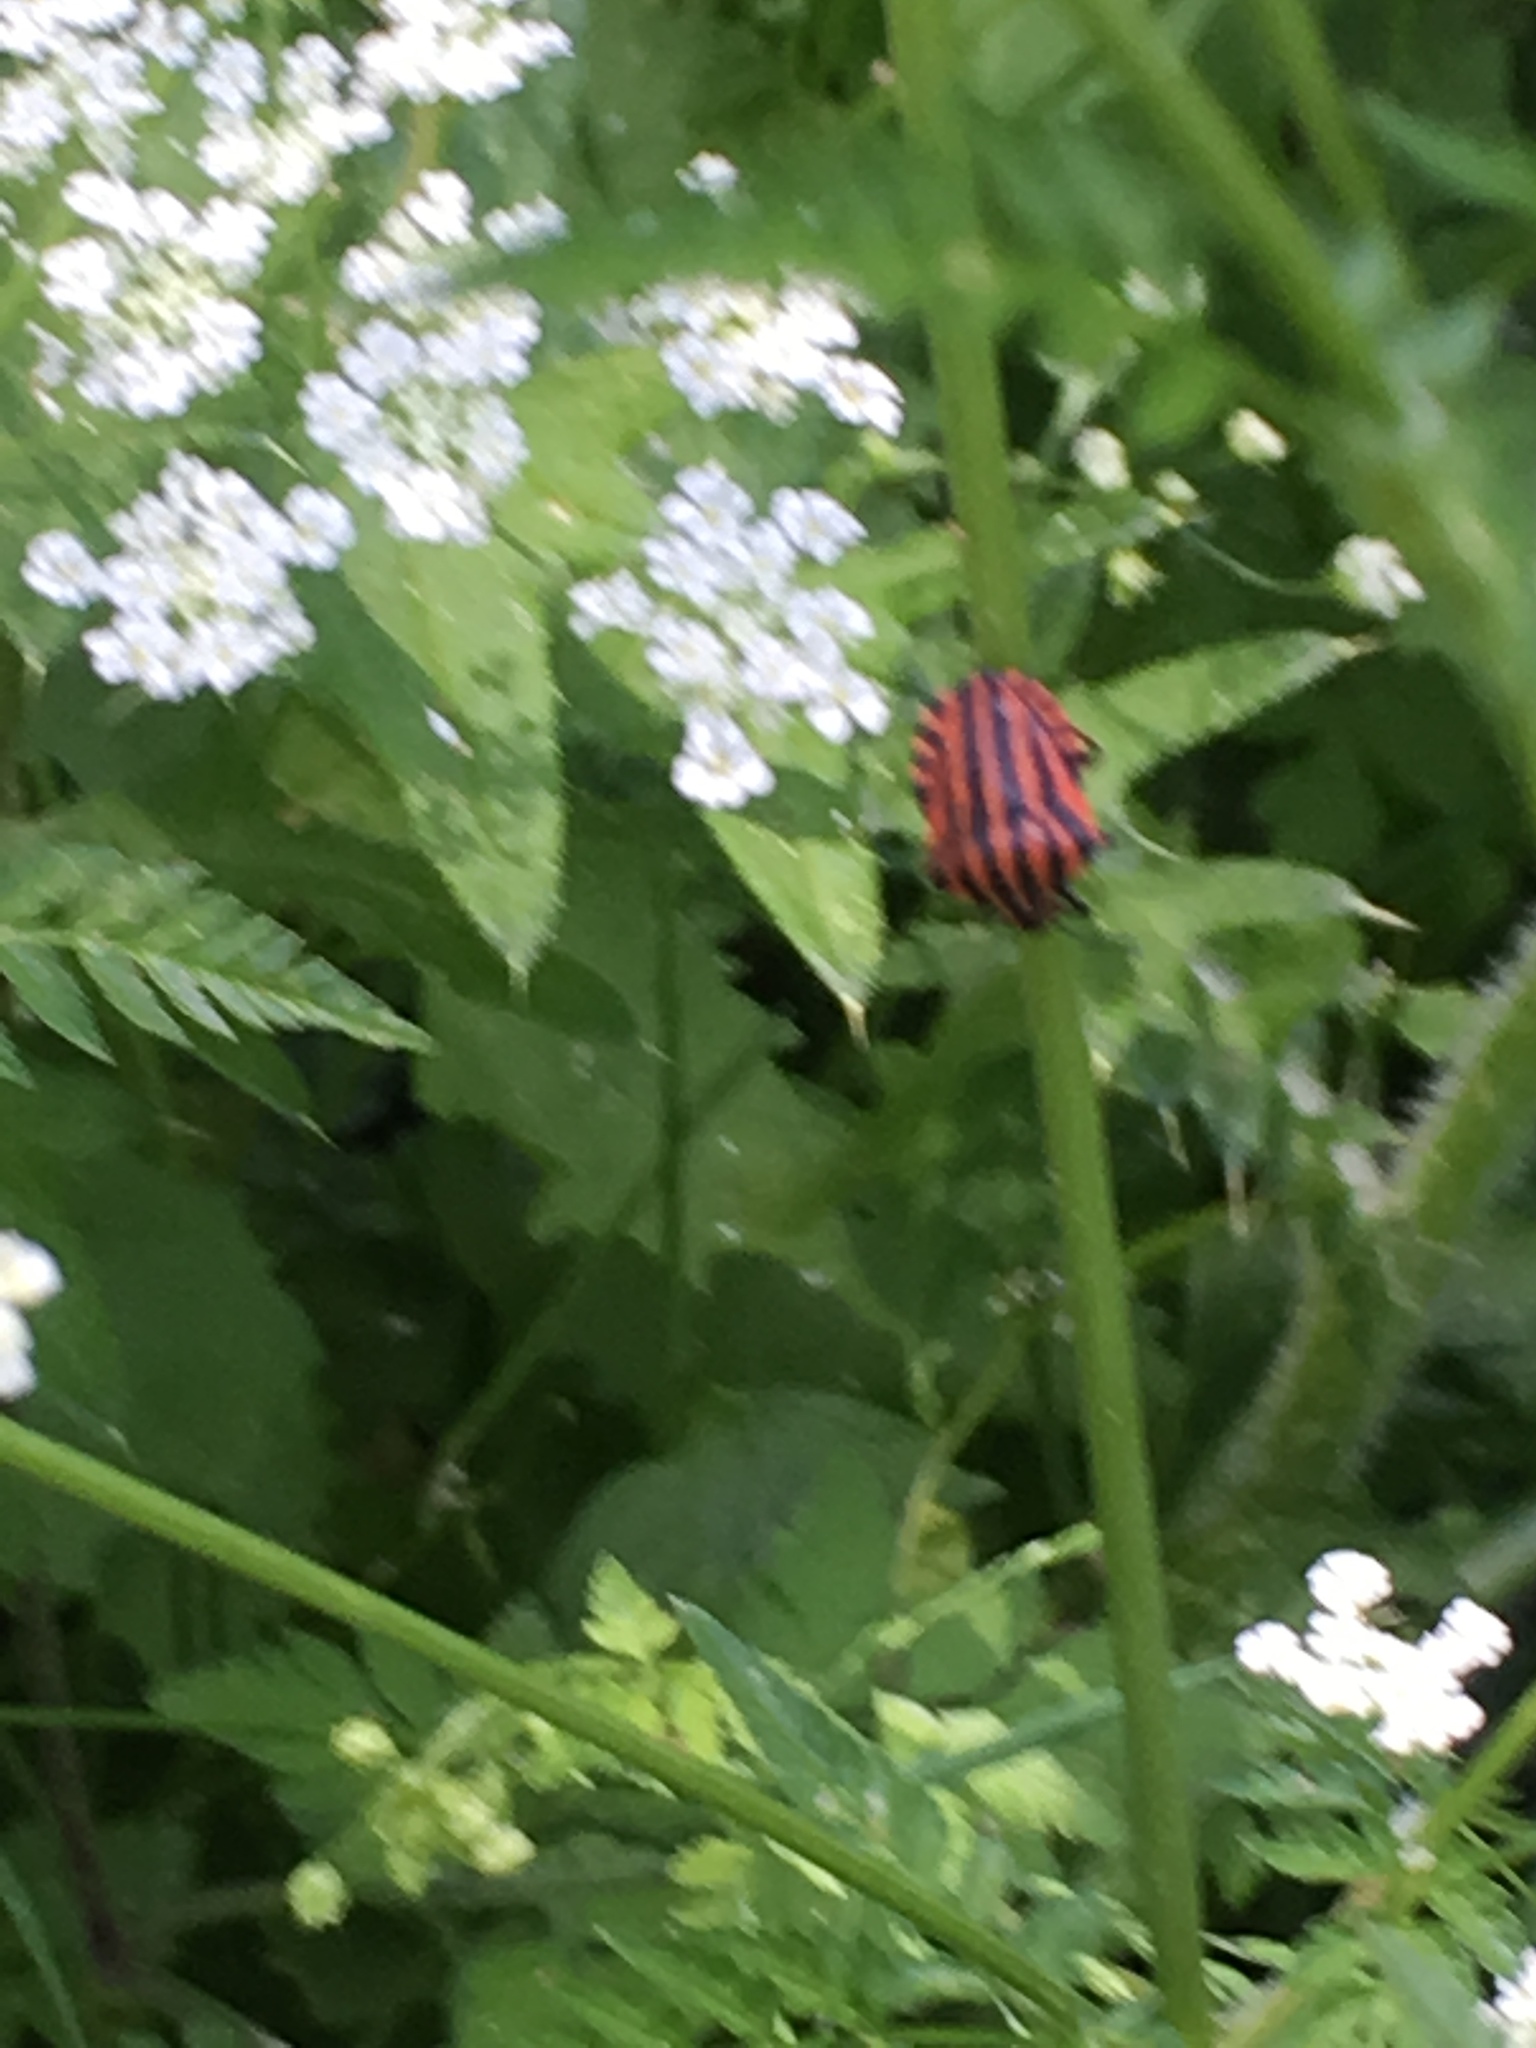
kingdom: Animalia
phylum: Arthropoda
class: Insecta
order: Hemiptera
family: Pentatomidae
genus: Graphosoma
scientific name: Graphosoma italicum
